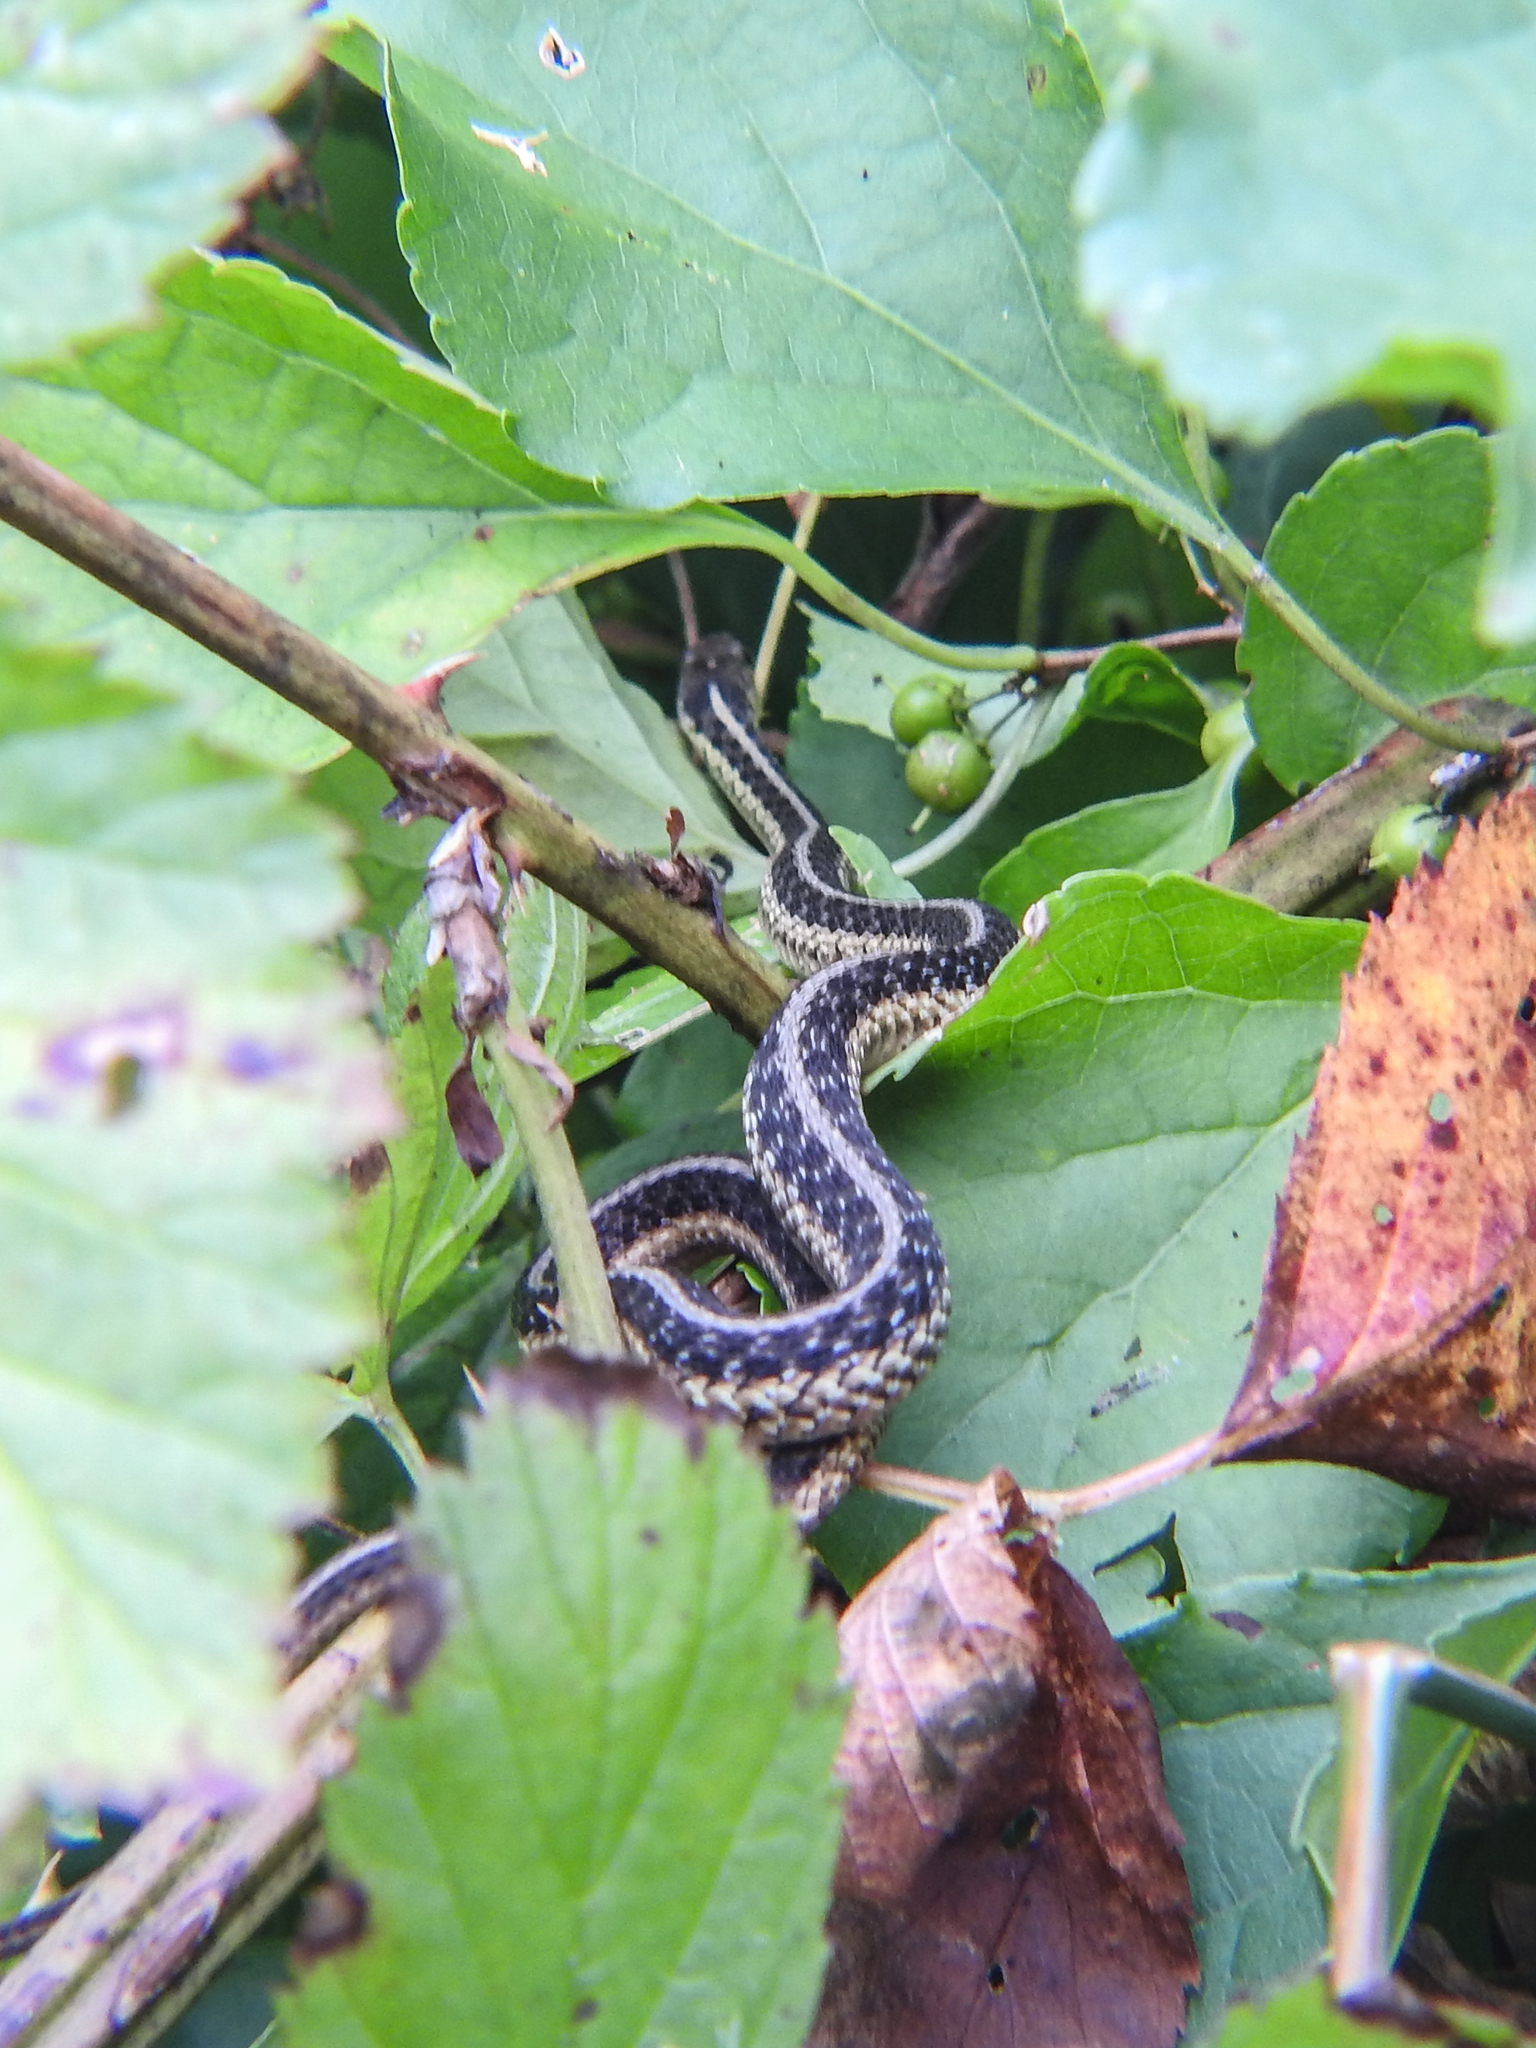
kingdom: Animalia
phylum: Chordata
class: Squamata
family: Colubridae
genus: Thamnophis
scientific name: Thamnophis sirtalis
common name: Common garter snake
